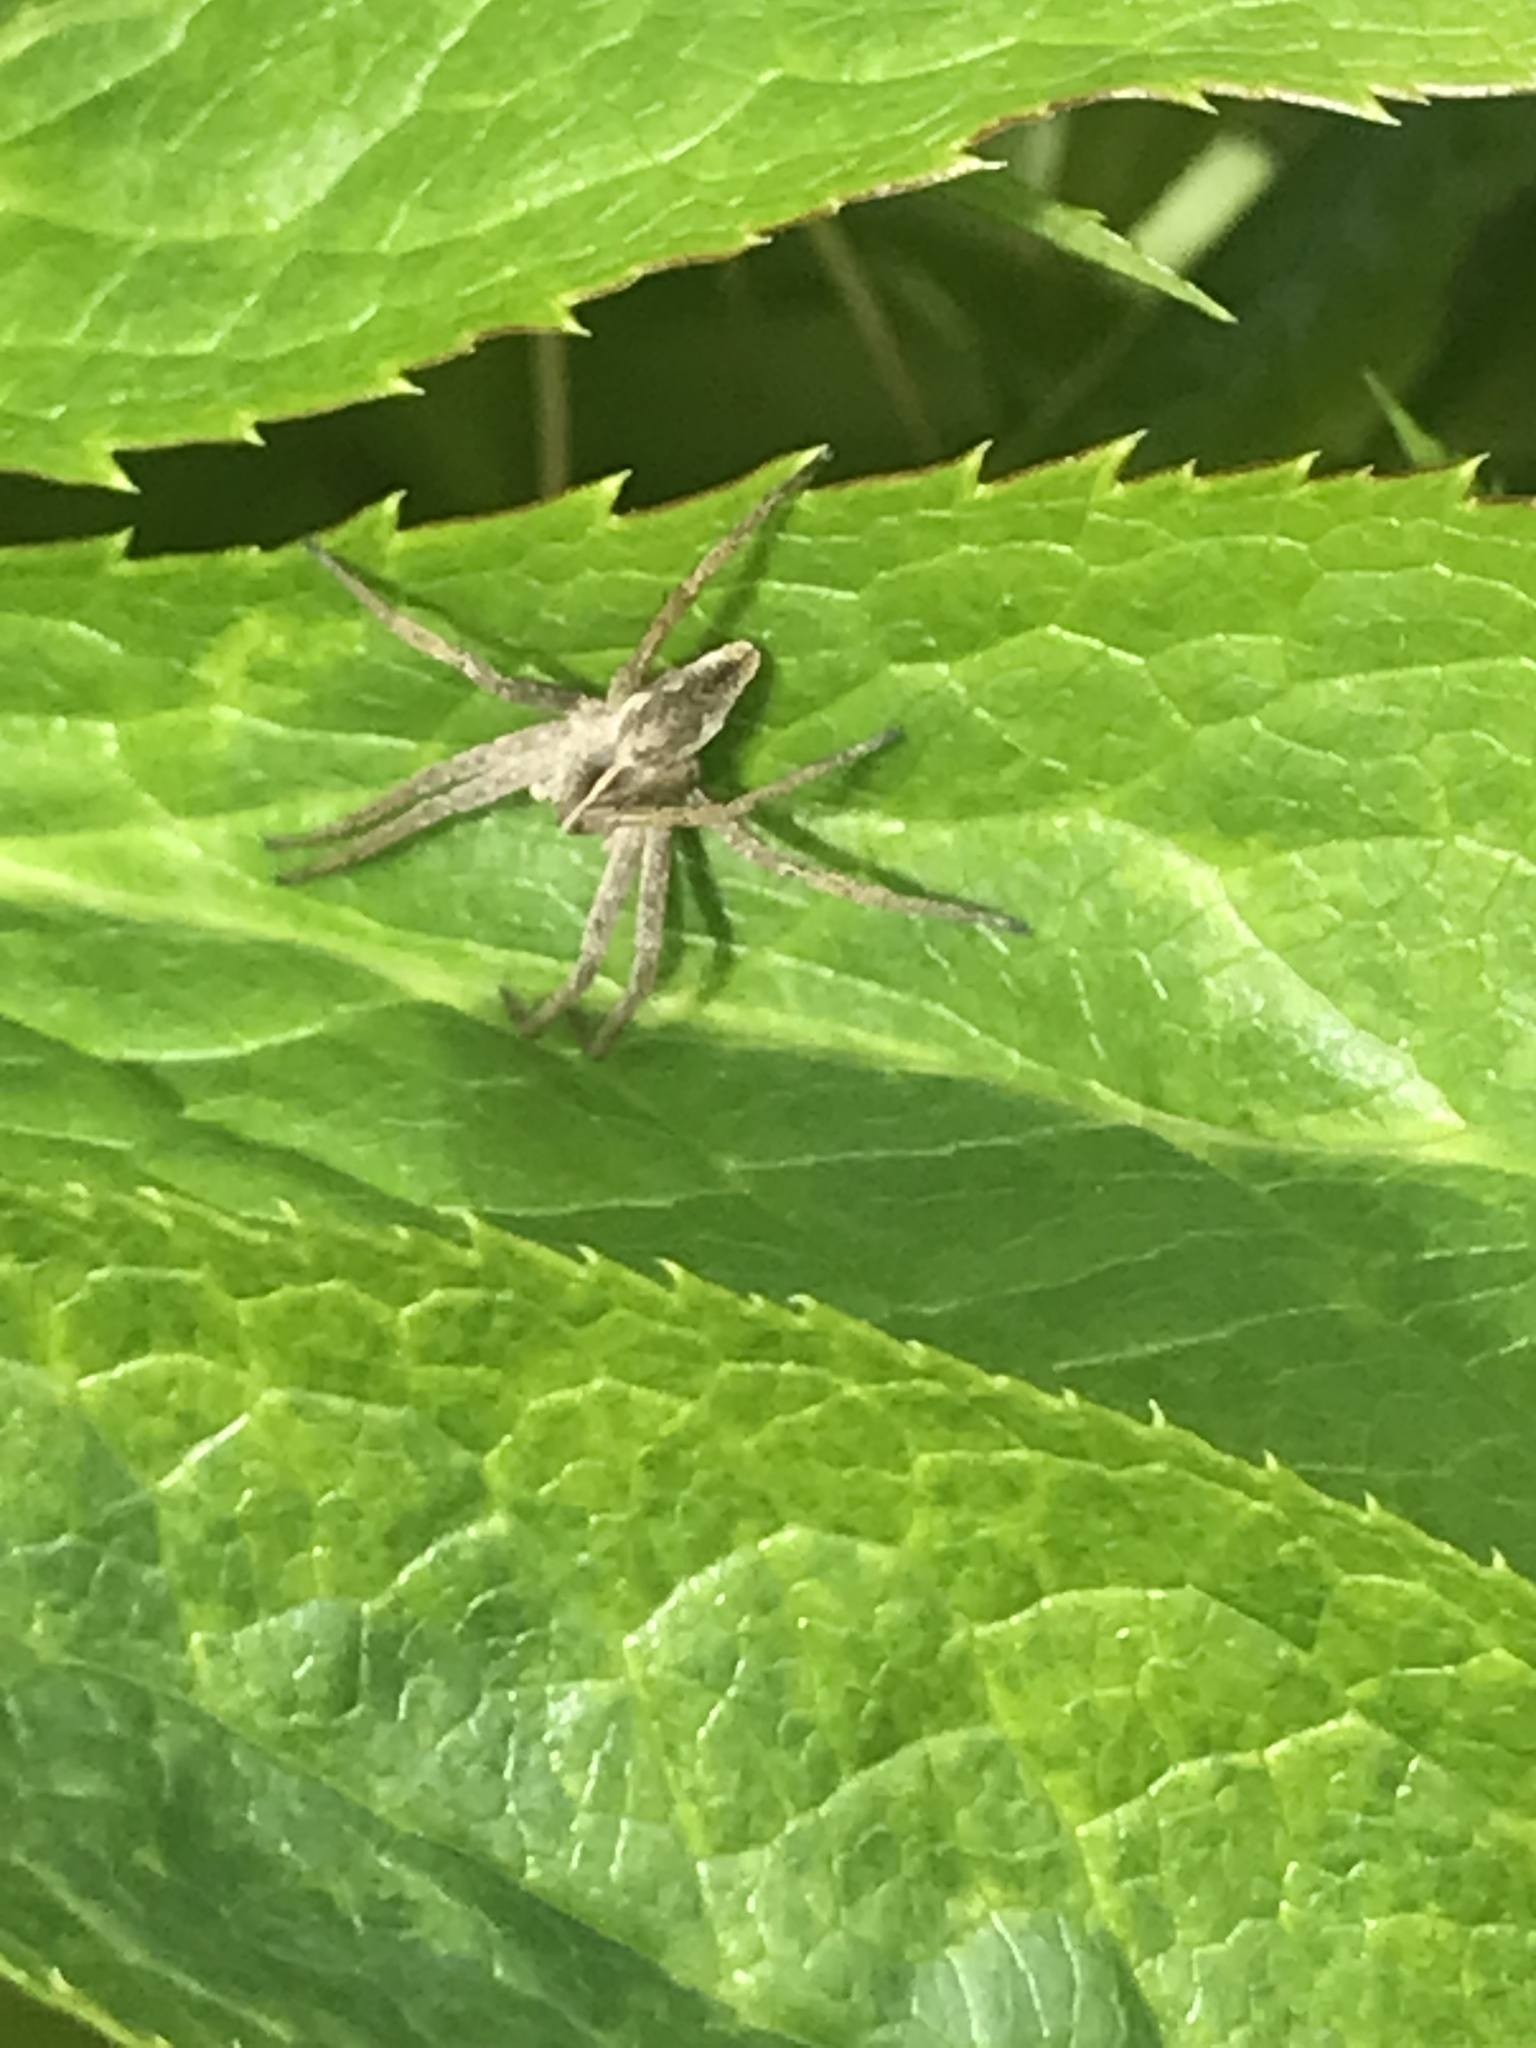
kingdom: Animalia
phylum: Arthropoda
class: Arachnida
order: Araneae
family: Pisauridae
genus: Pisaura
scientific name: Pisaura mirabilis
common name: Tent spider
